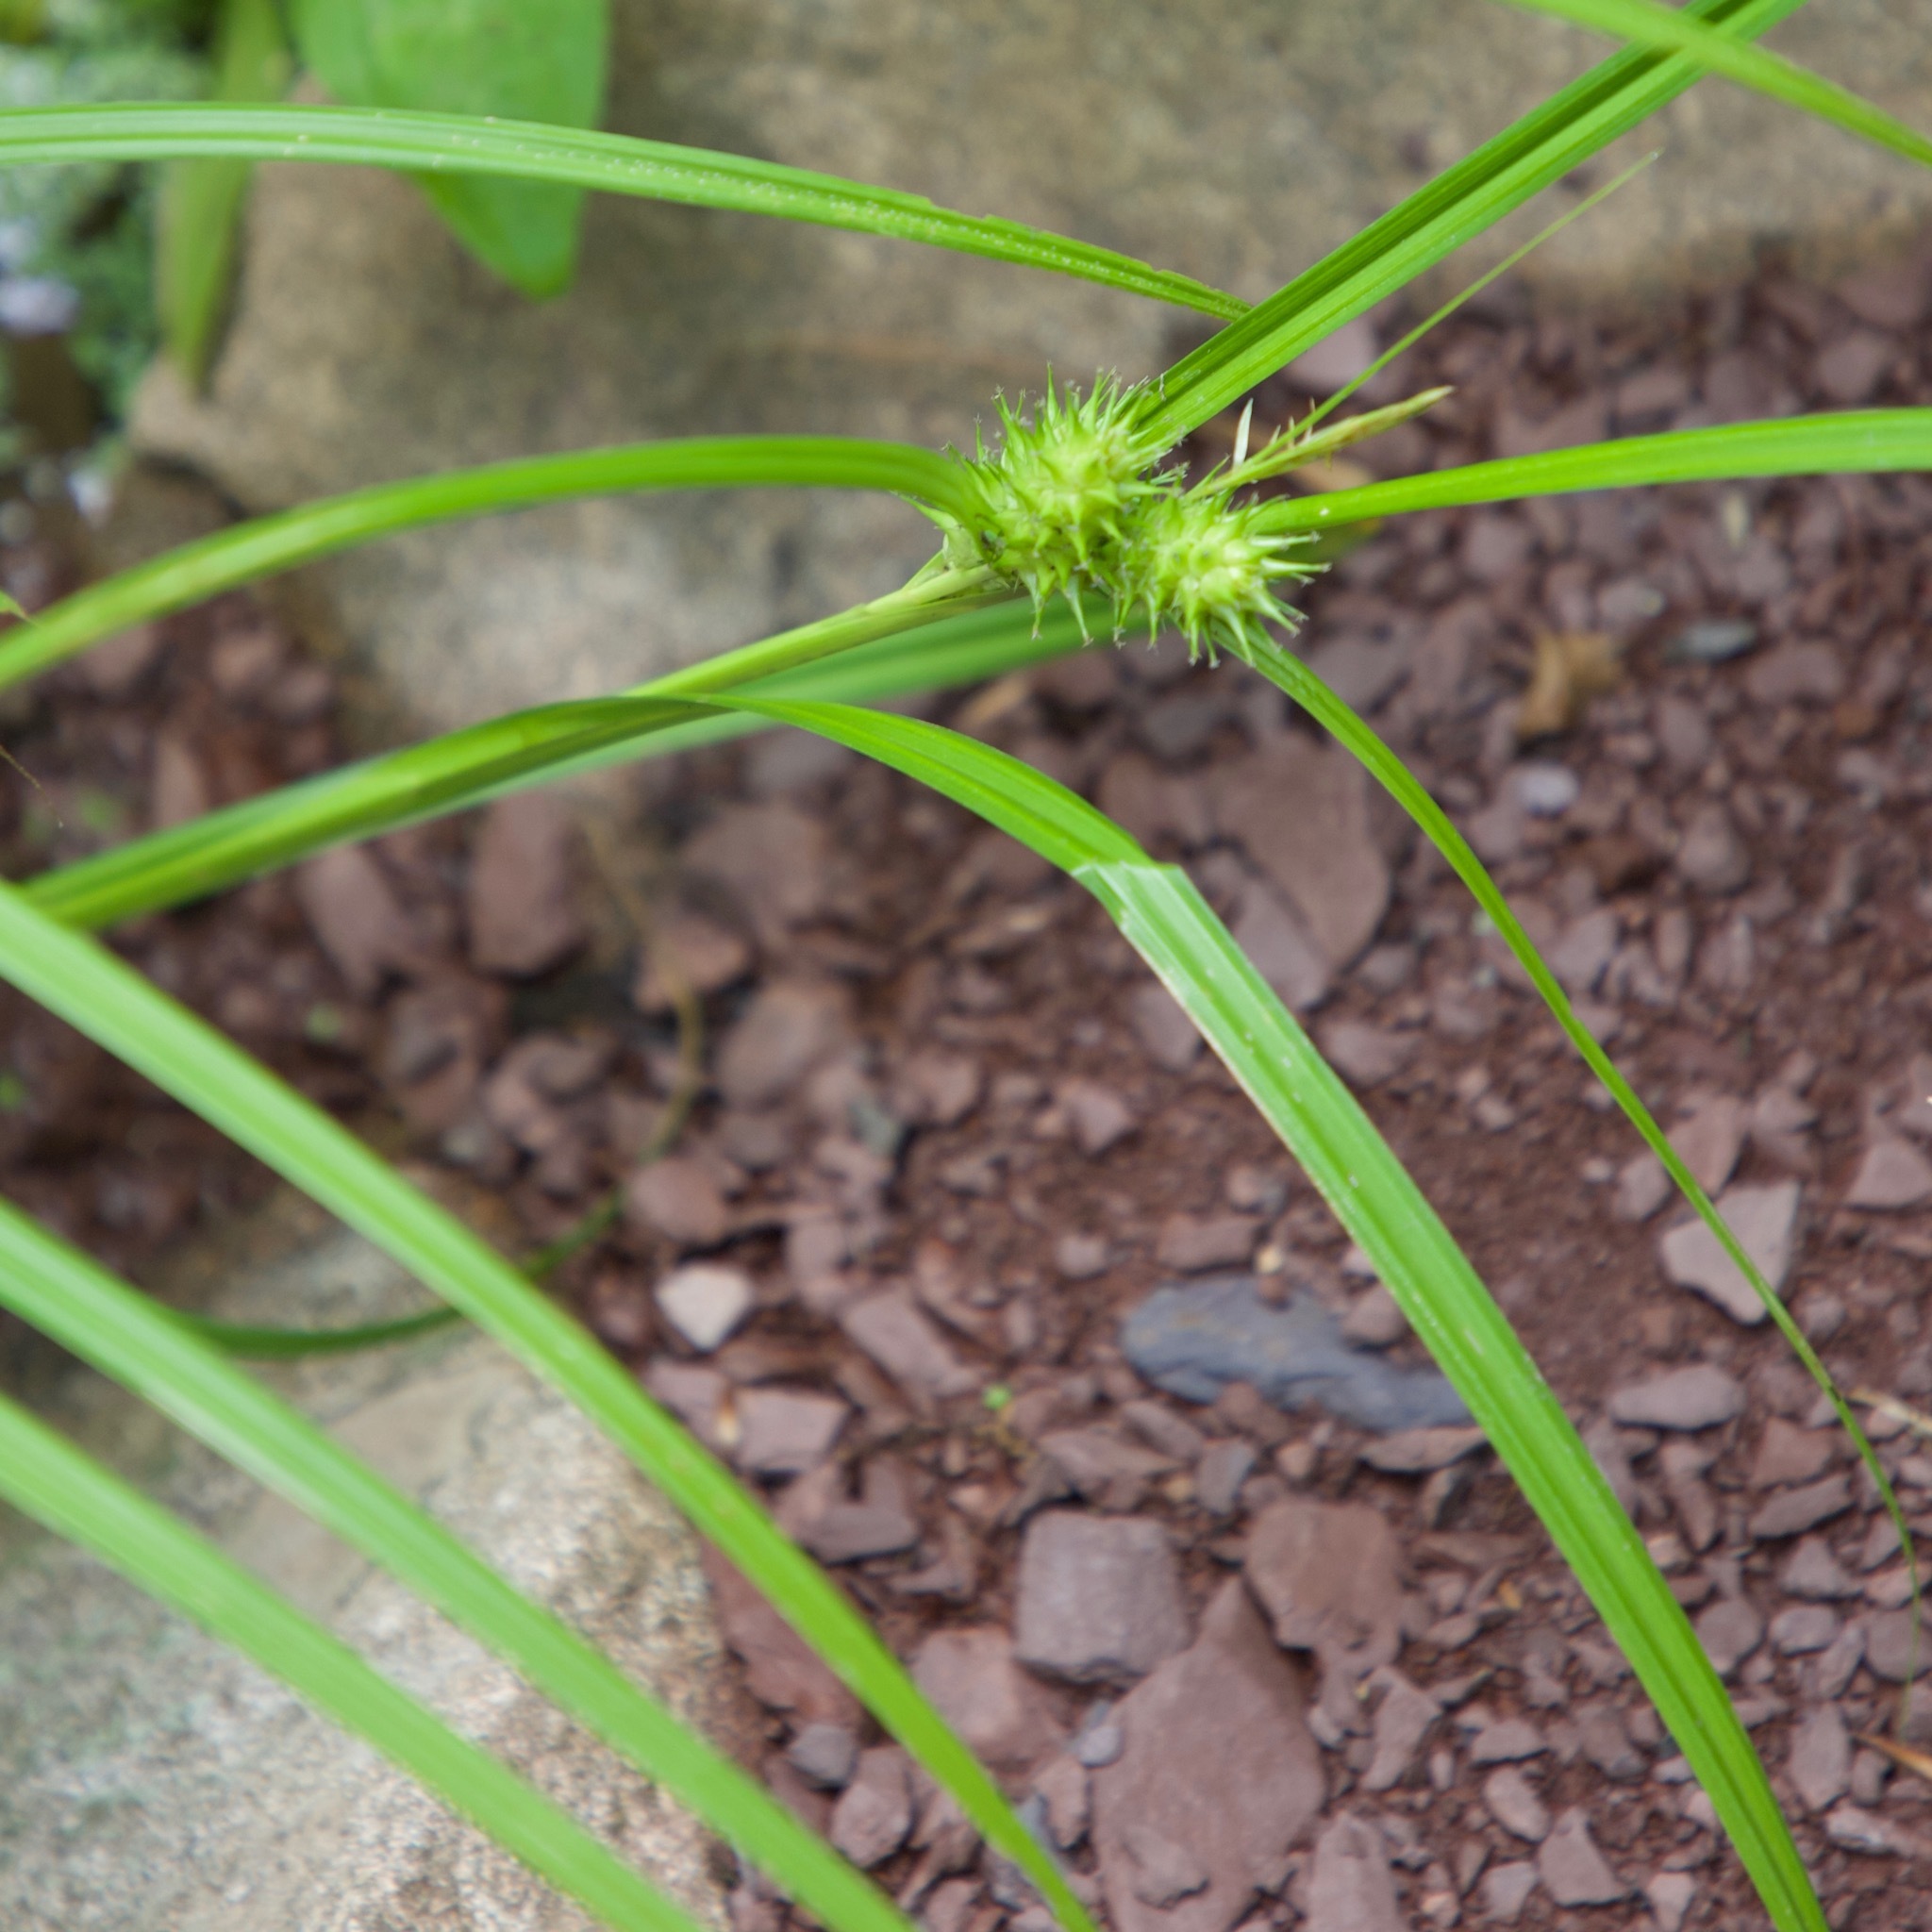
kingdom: Plantae
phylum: Tracheophyta
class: Liliopsida
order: Poales
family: Cyperaceae
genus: Carex
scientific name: Carex lupulina
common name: Hop sedge
